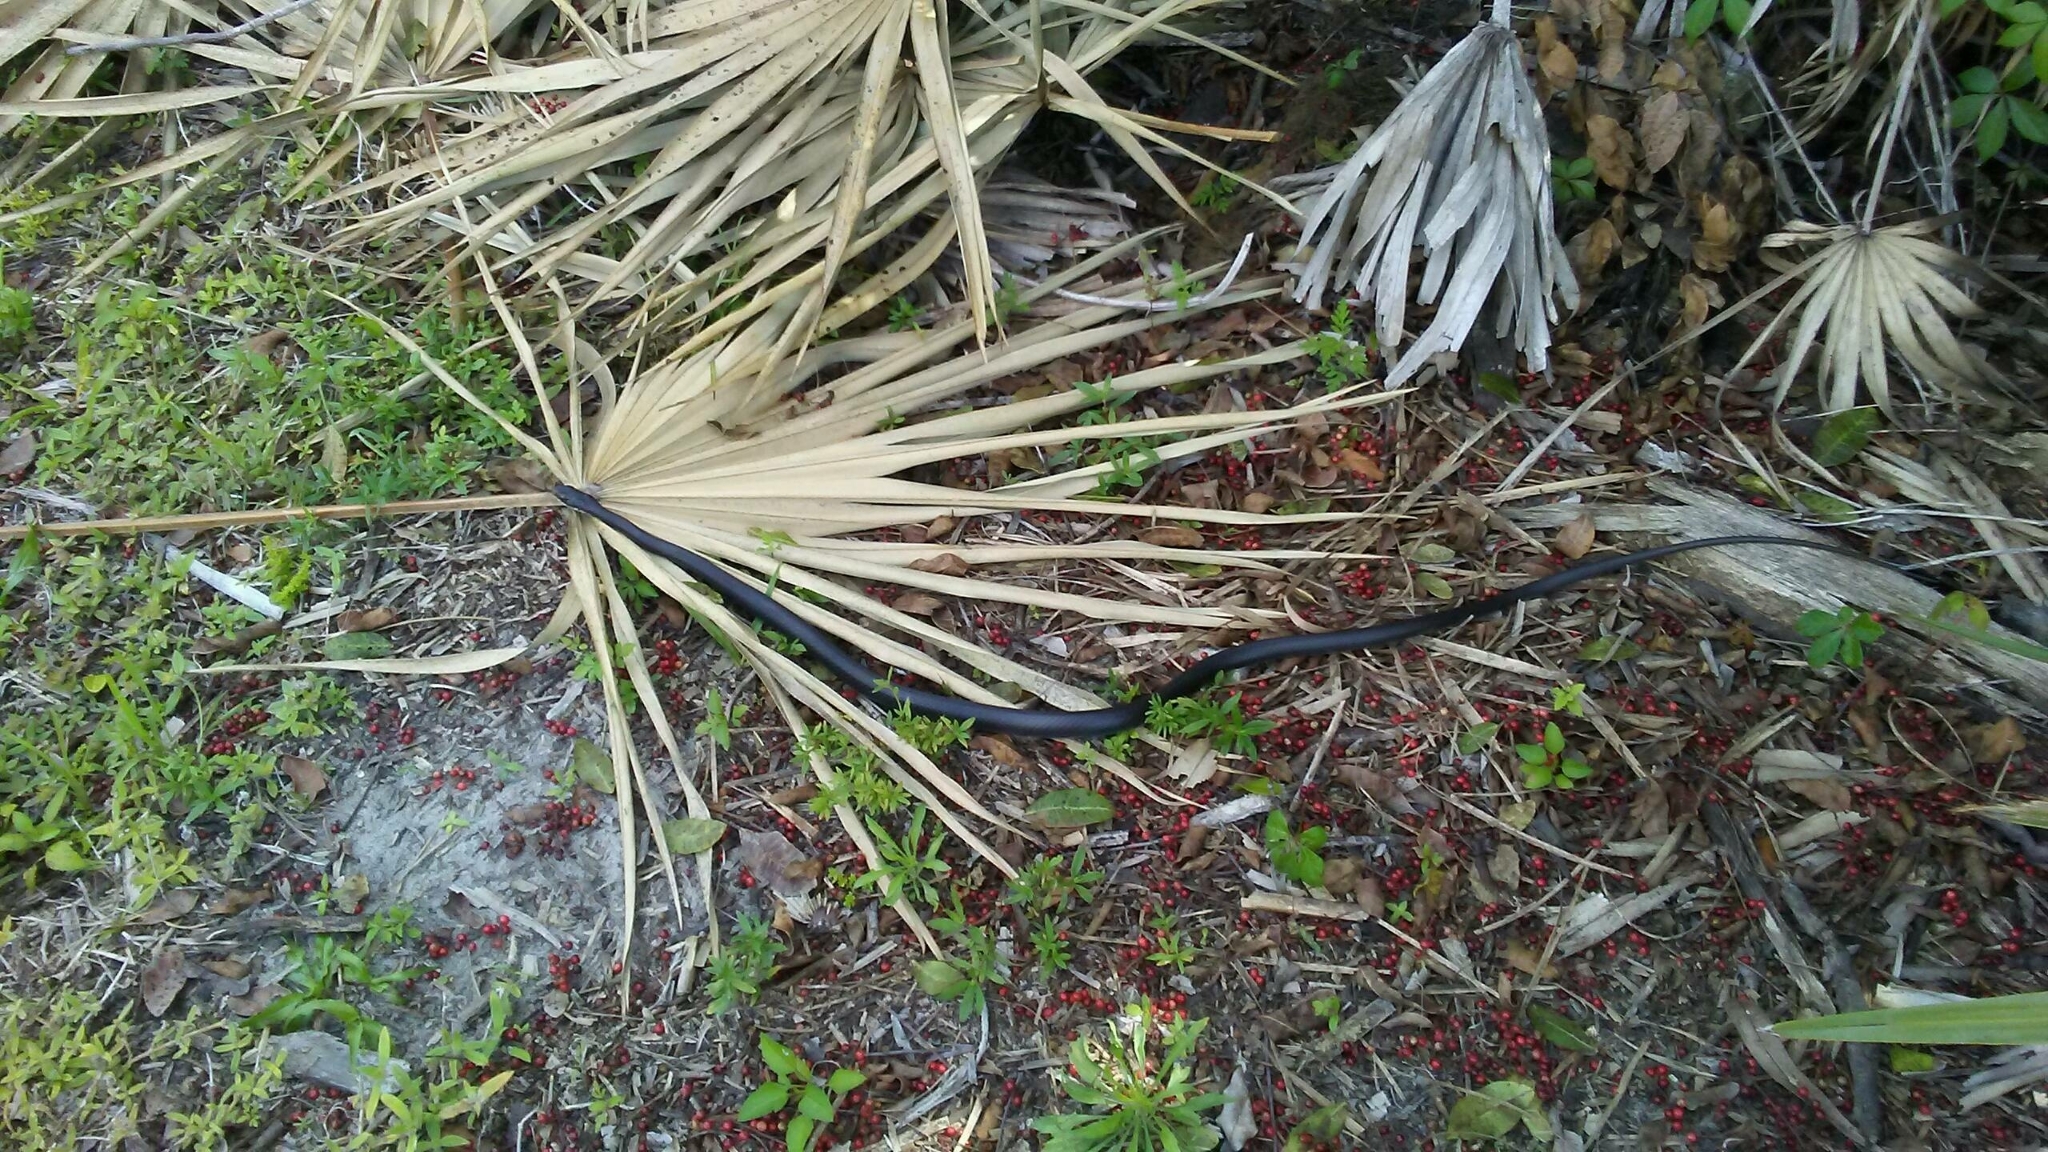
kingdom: Animalia
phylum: Chordata
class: Squamata
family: Colubridae
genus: Coluber
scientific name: Coluber constrictor
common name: Eastern racer
